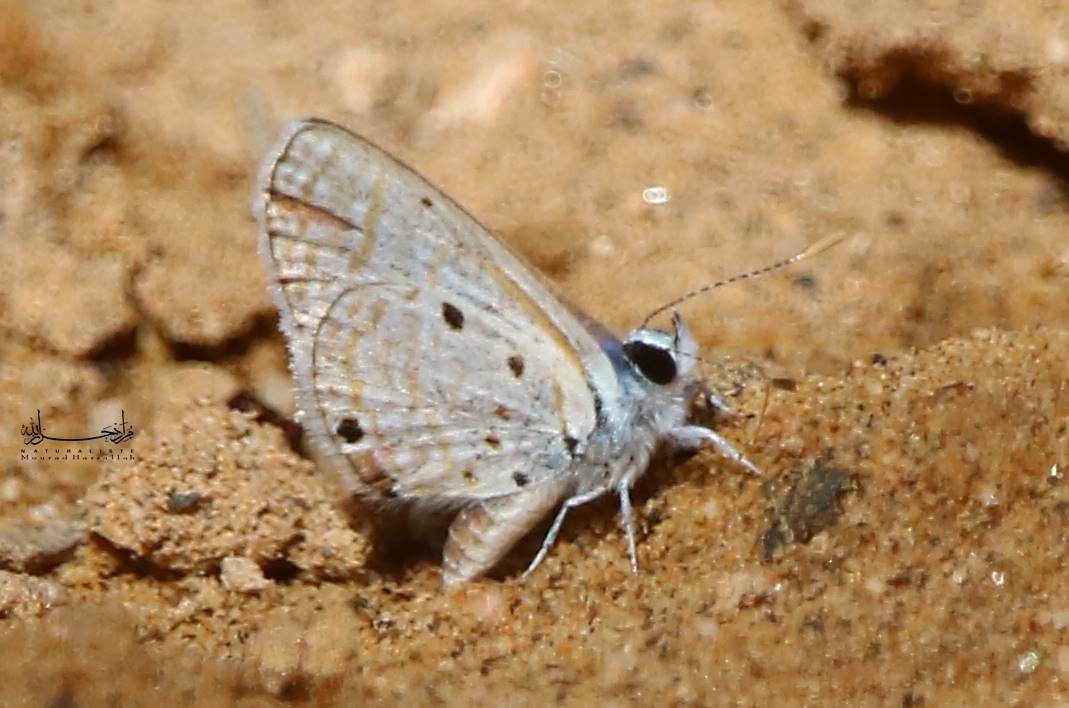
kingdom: Animalia
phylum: Arthropoda
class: Insecta
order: Lepidoptera
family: Lycaenidae
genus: Azanus
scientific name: Azanus ubaldus
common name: Desert babul blue
